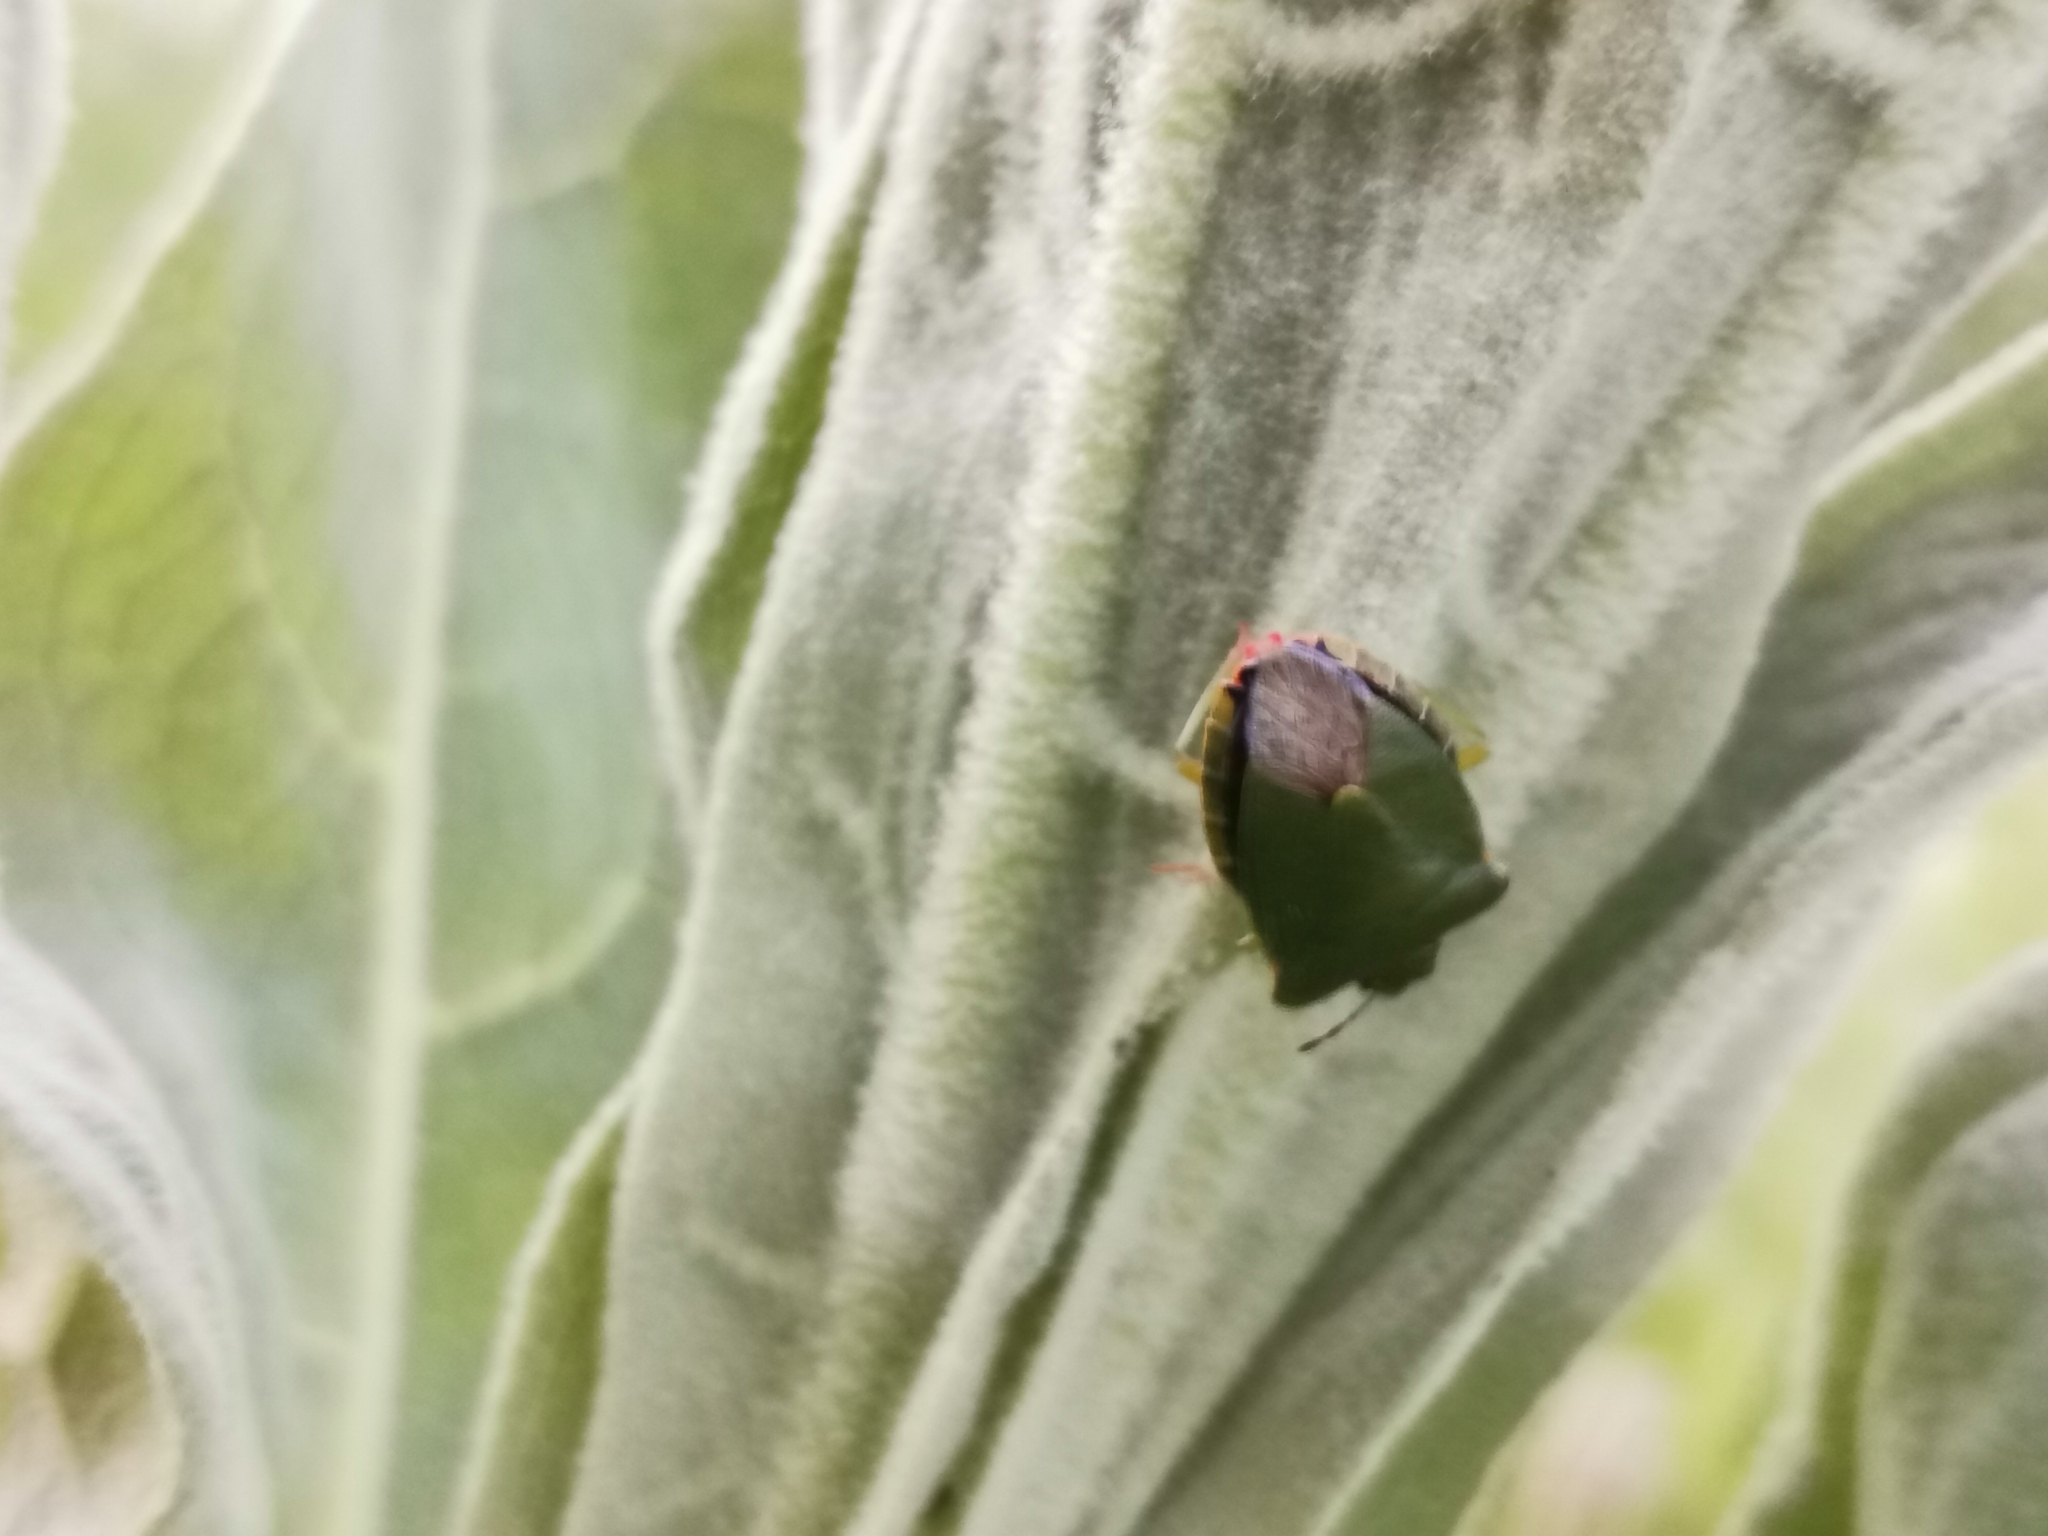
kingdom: Animalia
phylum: Arthropoda
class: Insecta
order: Hemiptera
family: Pentatomidae
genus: Palomena
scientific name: Palomena prasina
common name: Green shieldbug
